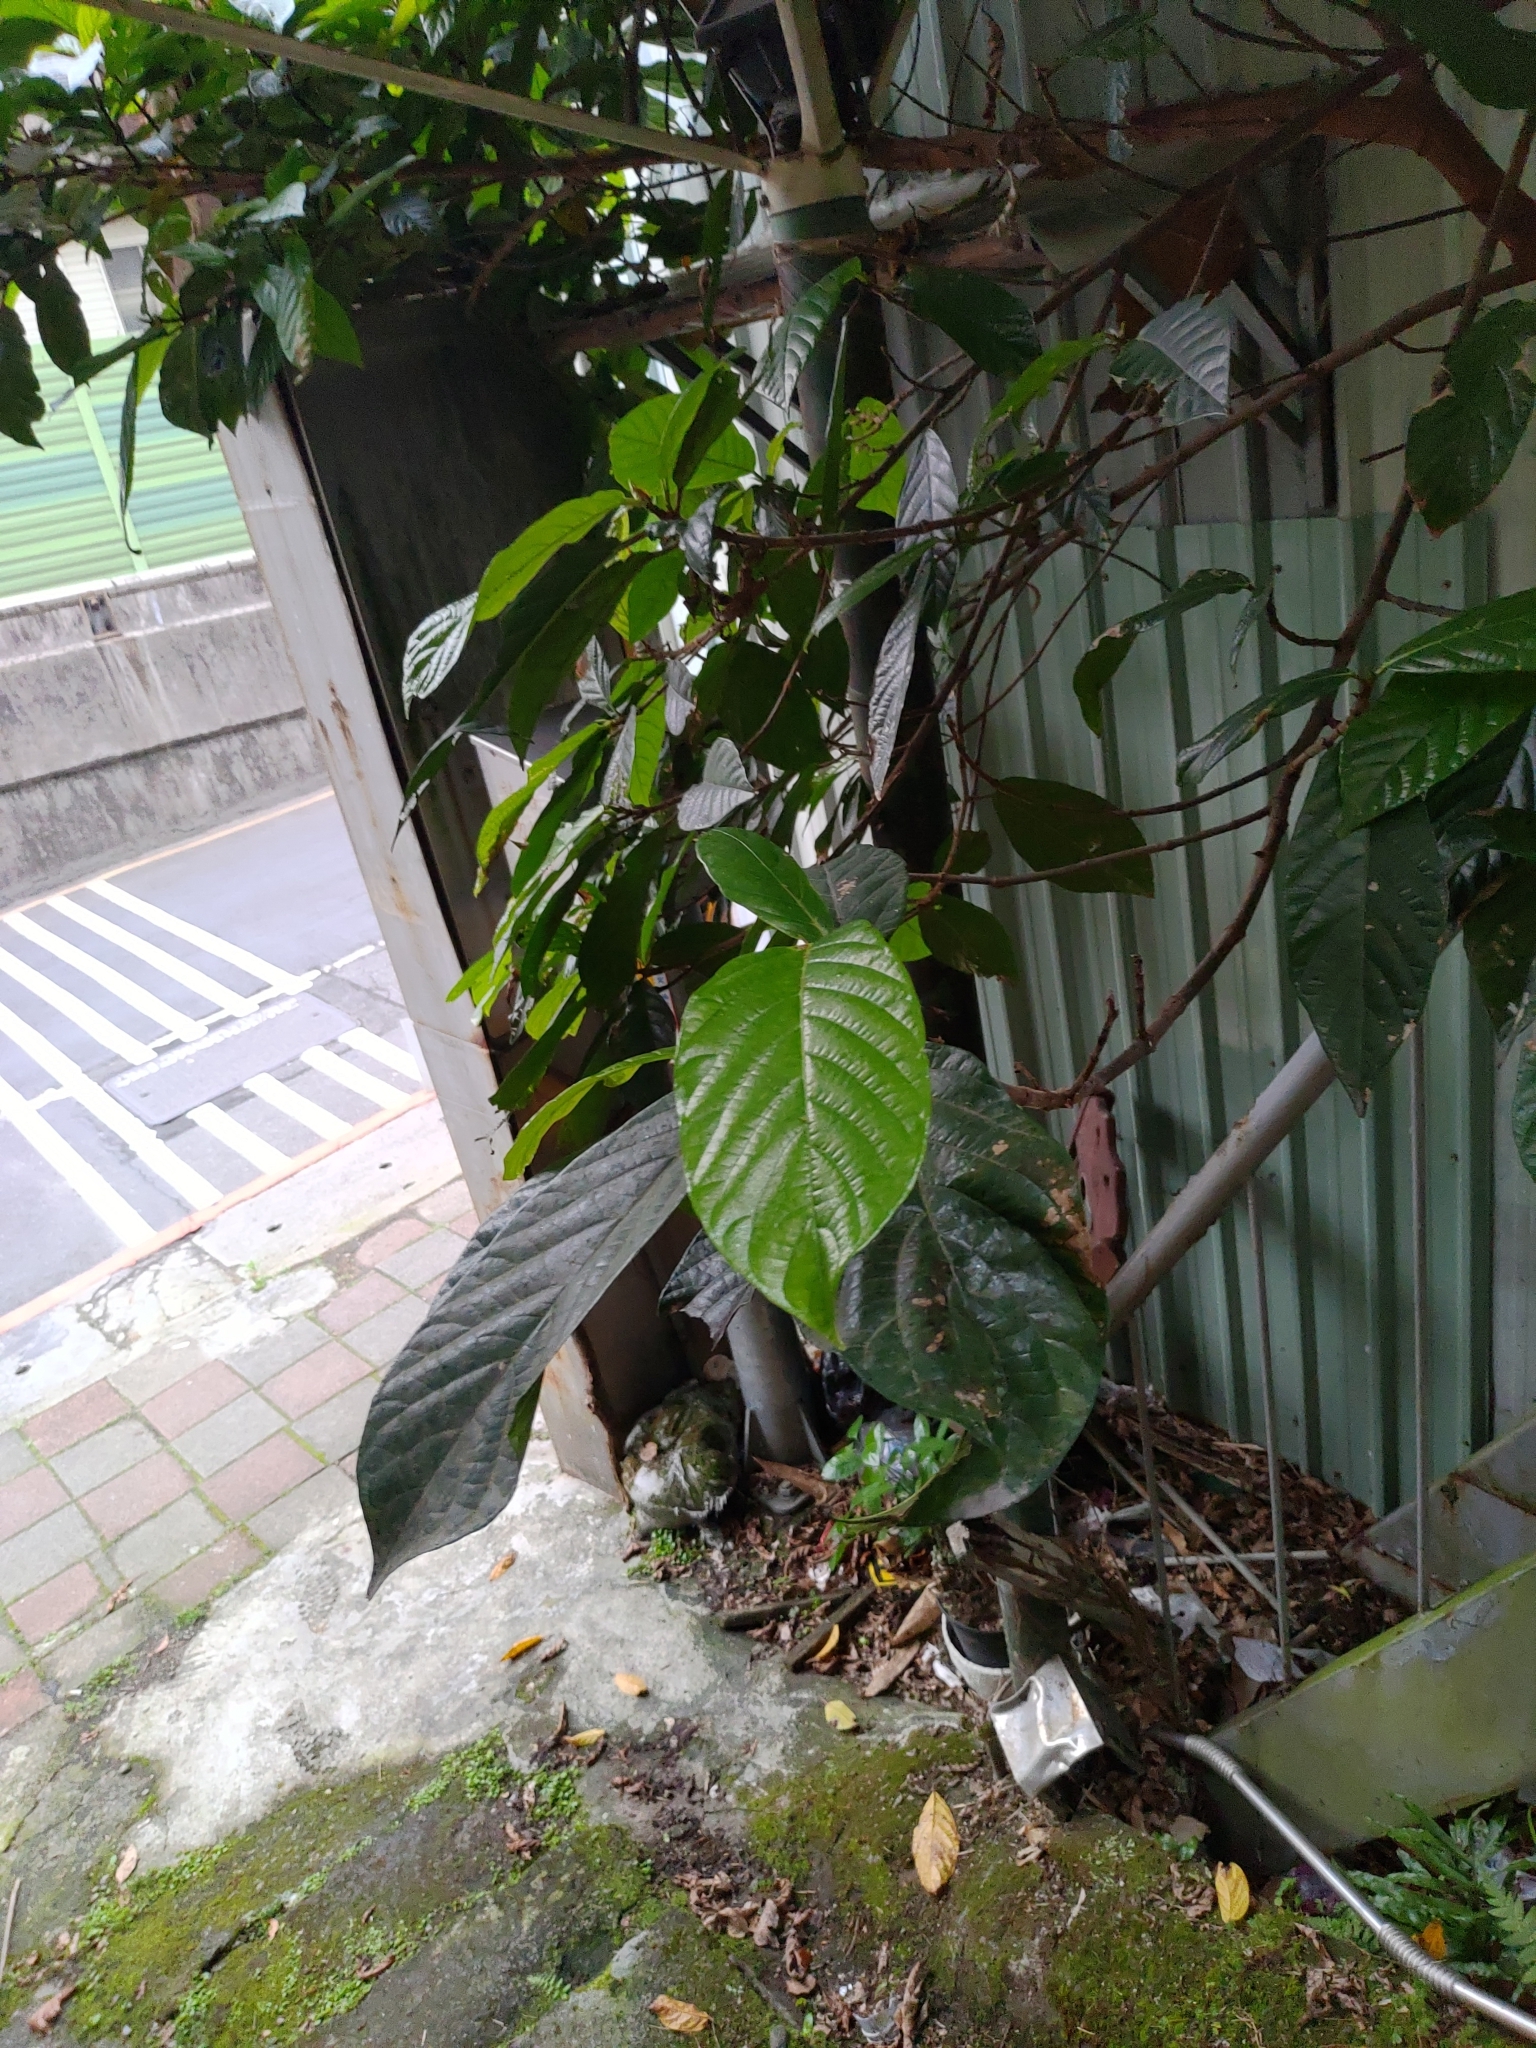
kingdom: Plantae
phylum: Tracheophyta
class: Magnoliopsida
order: Rosales
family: Moraceae
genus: Ficus
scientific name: Ficus benguetensis
